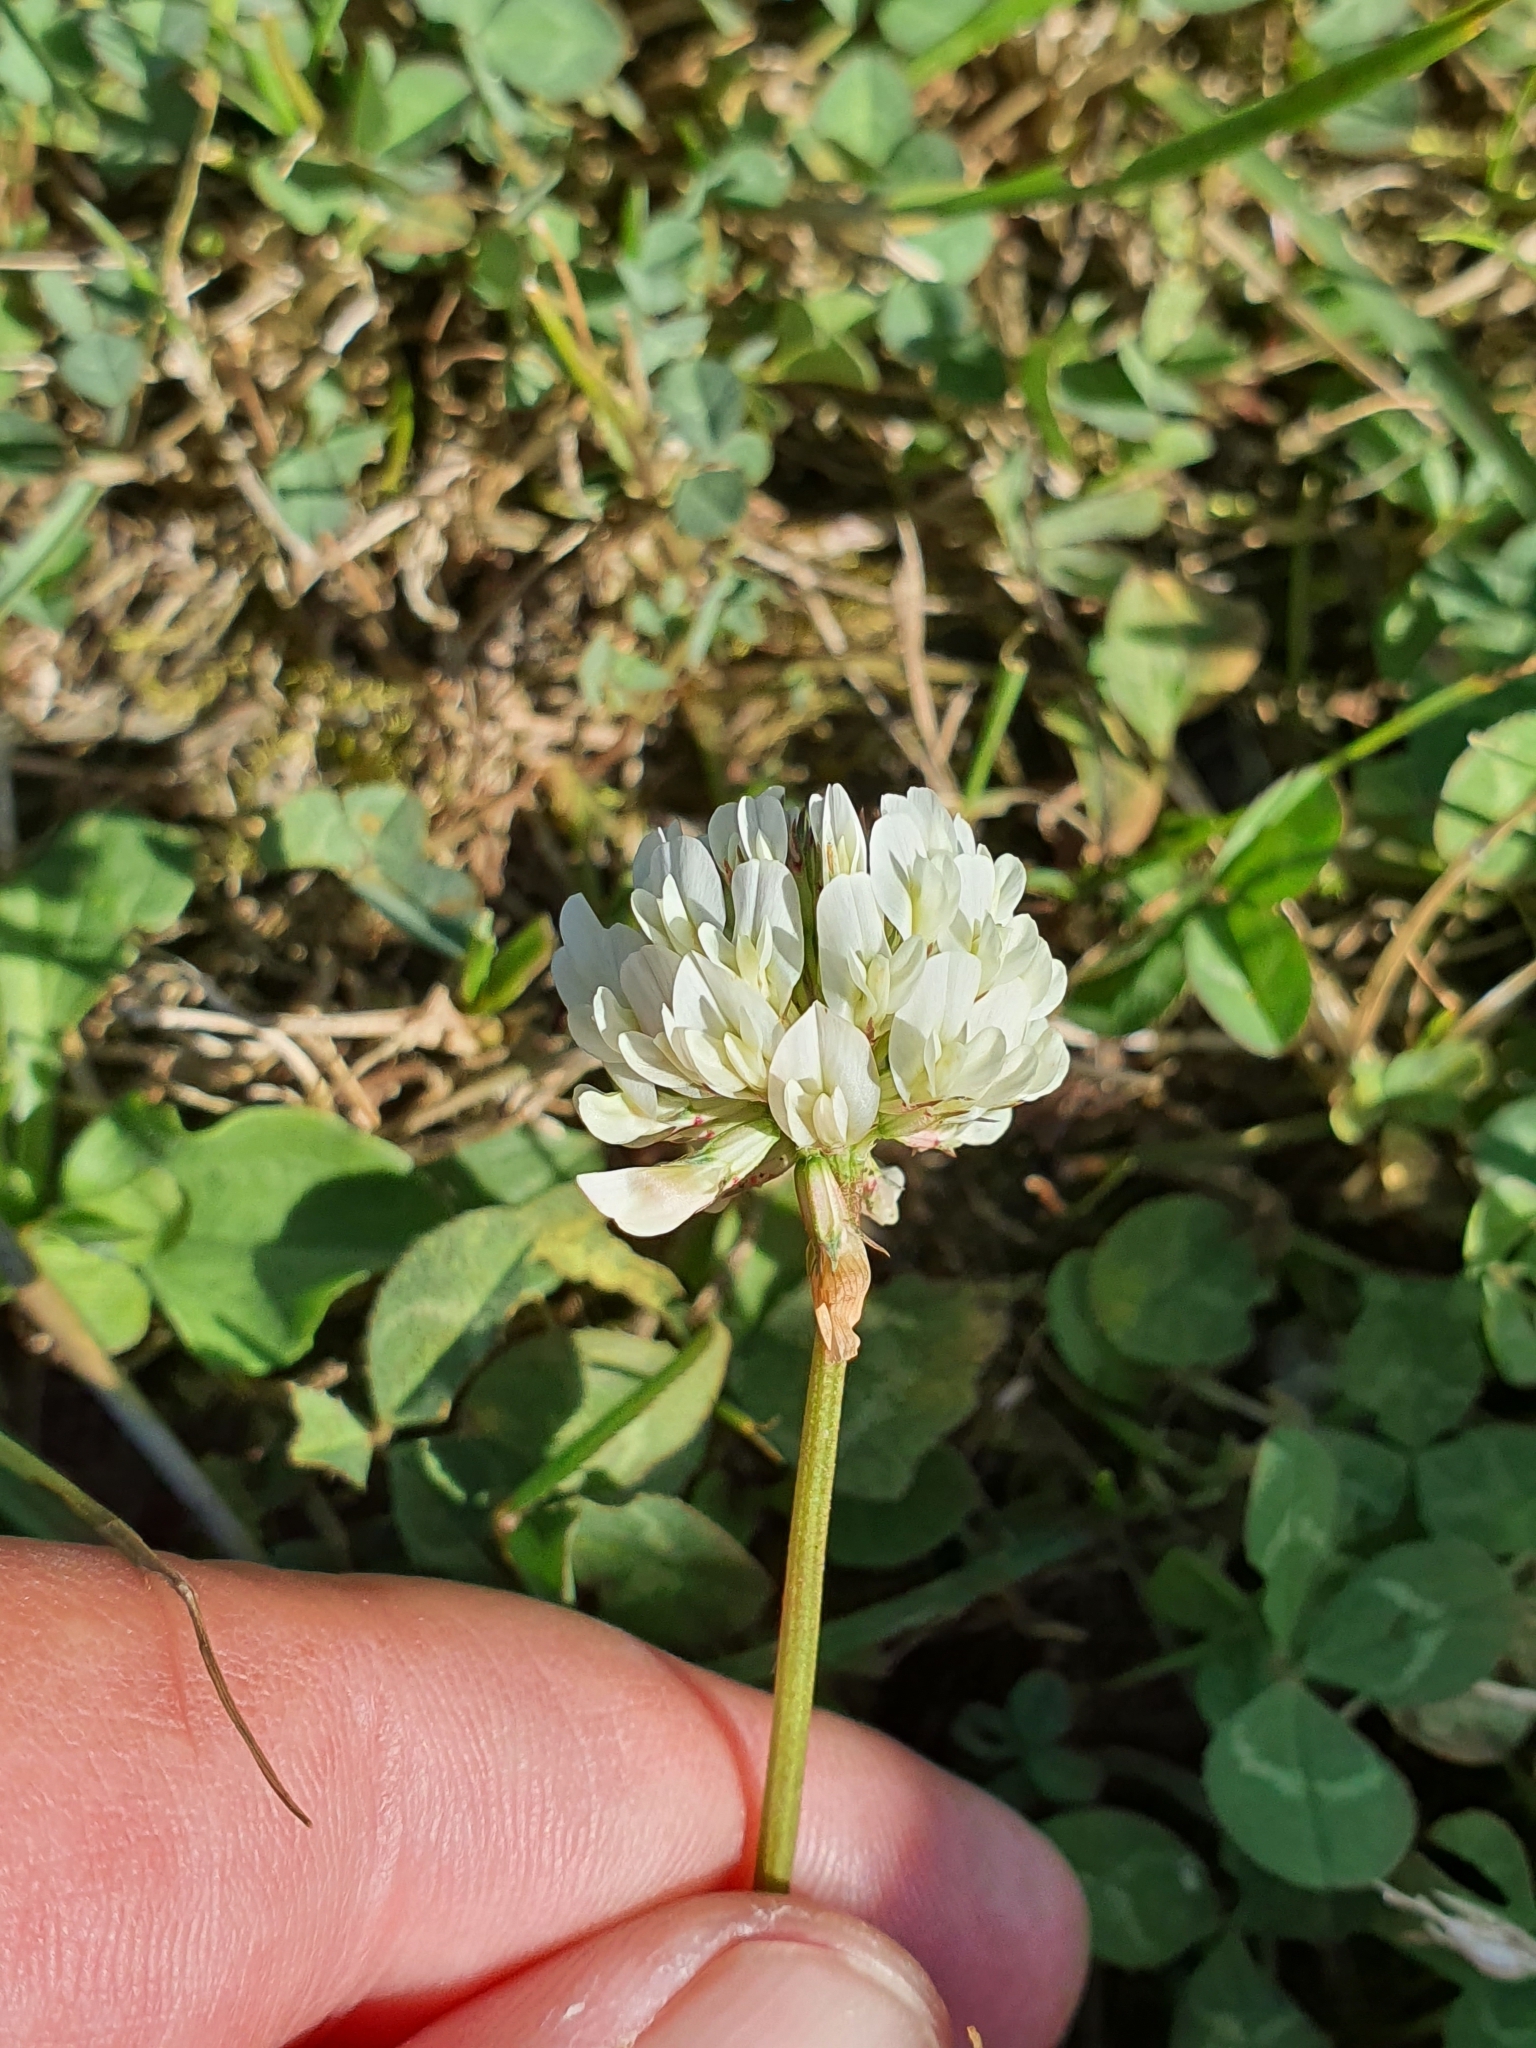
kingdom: Plantae
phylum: Tracheophyta
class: Magnoliopsida
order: Fabales
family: Fabaceae
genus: Trifolium
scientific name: Trifolium repens
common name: White clover
